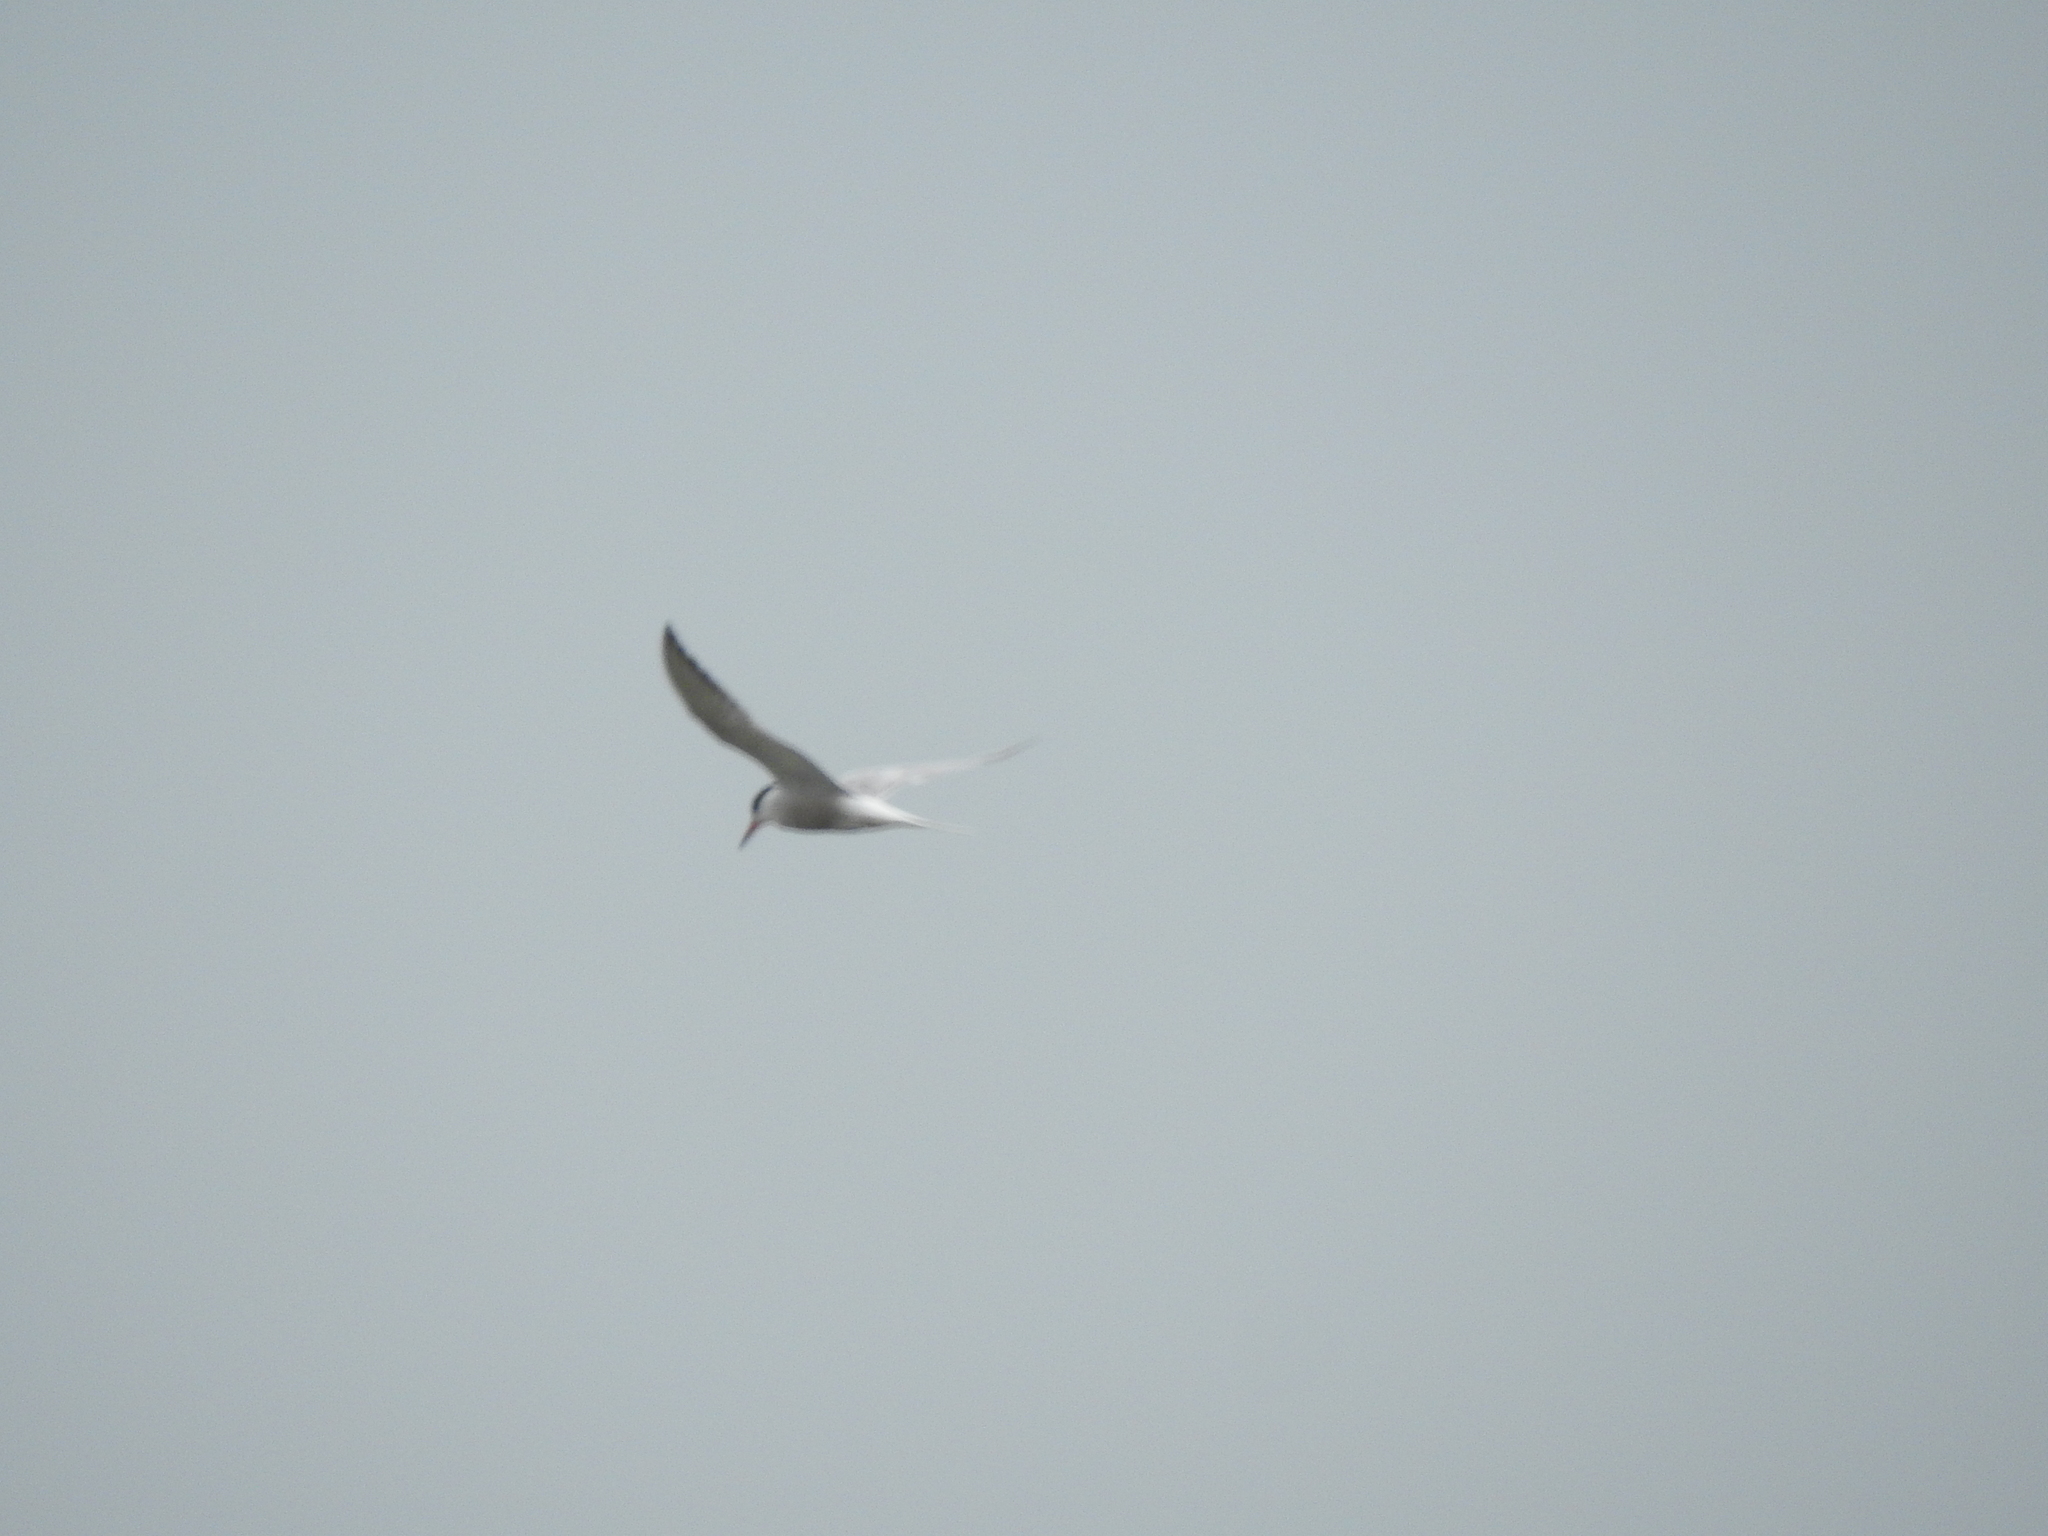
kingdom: Animalia
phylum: Chordata
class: Aves
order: Charadriiformes
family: Laridae
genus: Sterna
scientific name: Sterna hirundo
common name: Common tern
